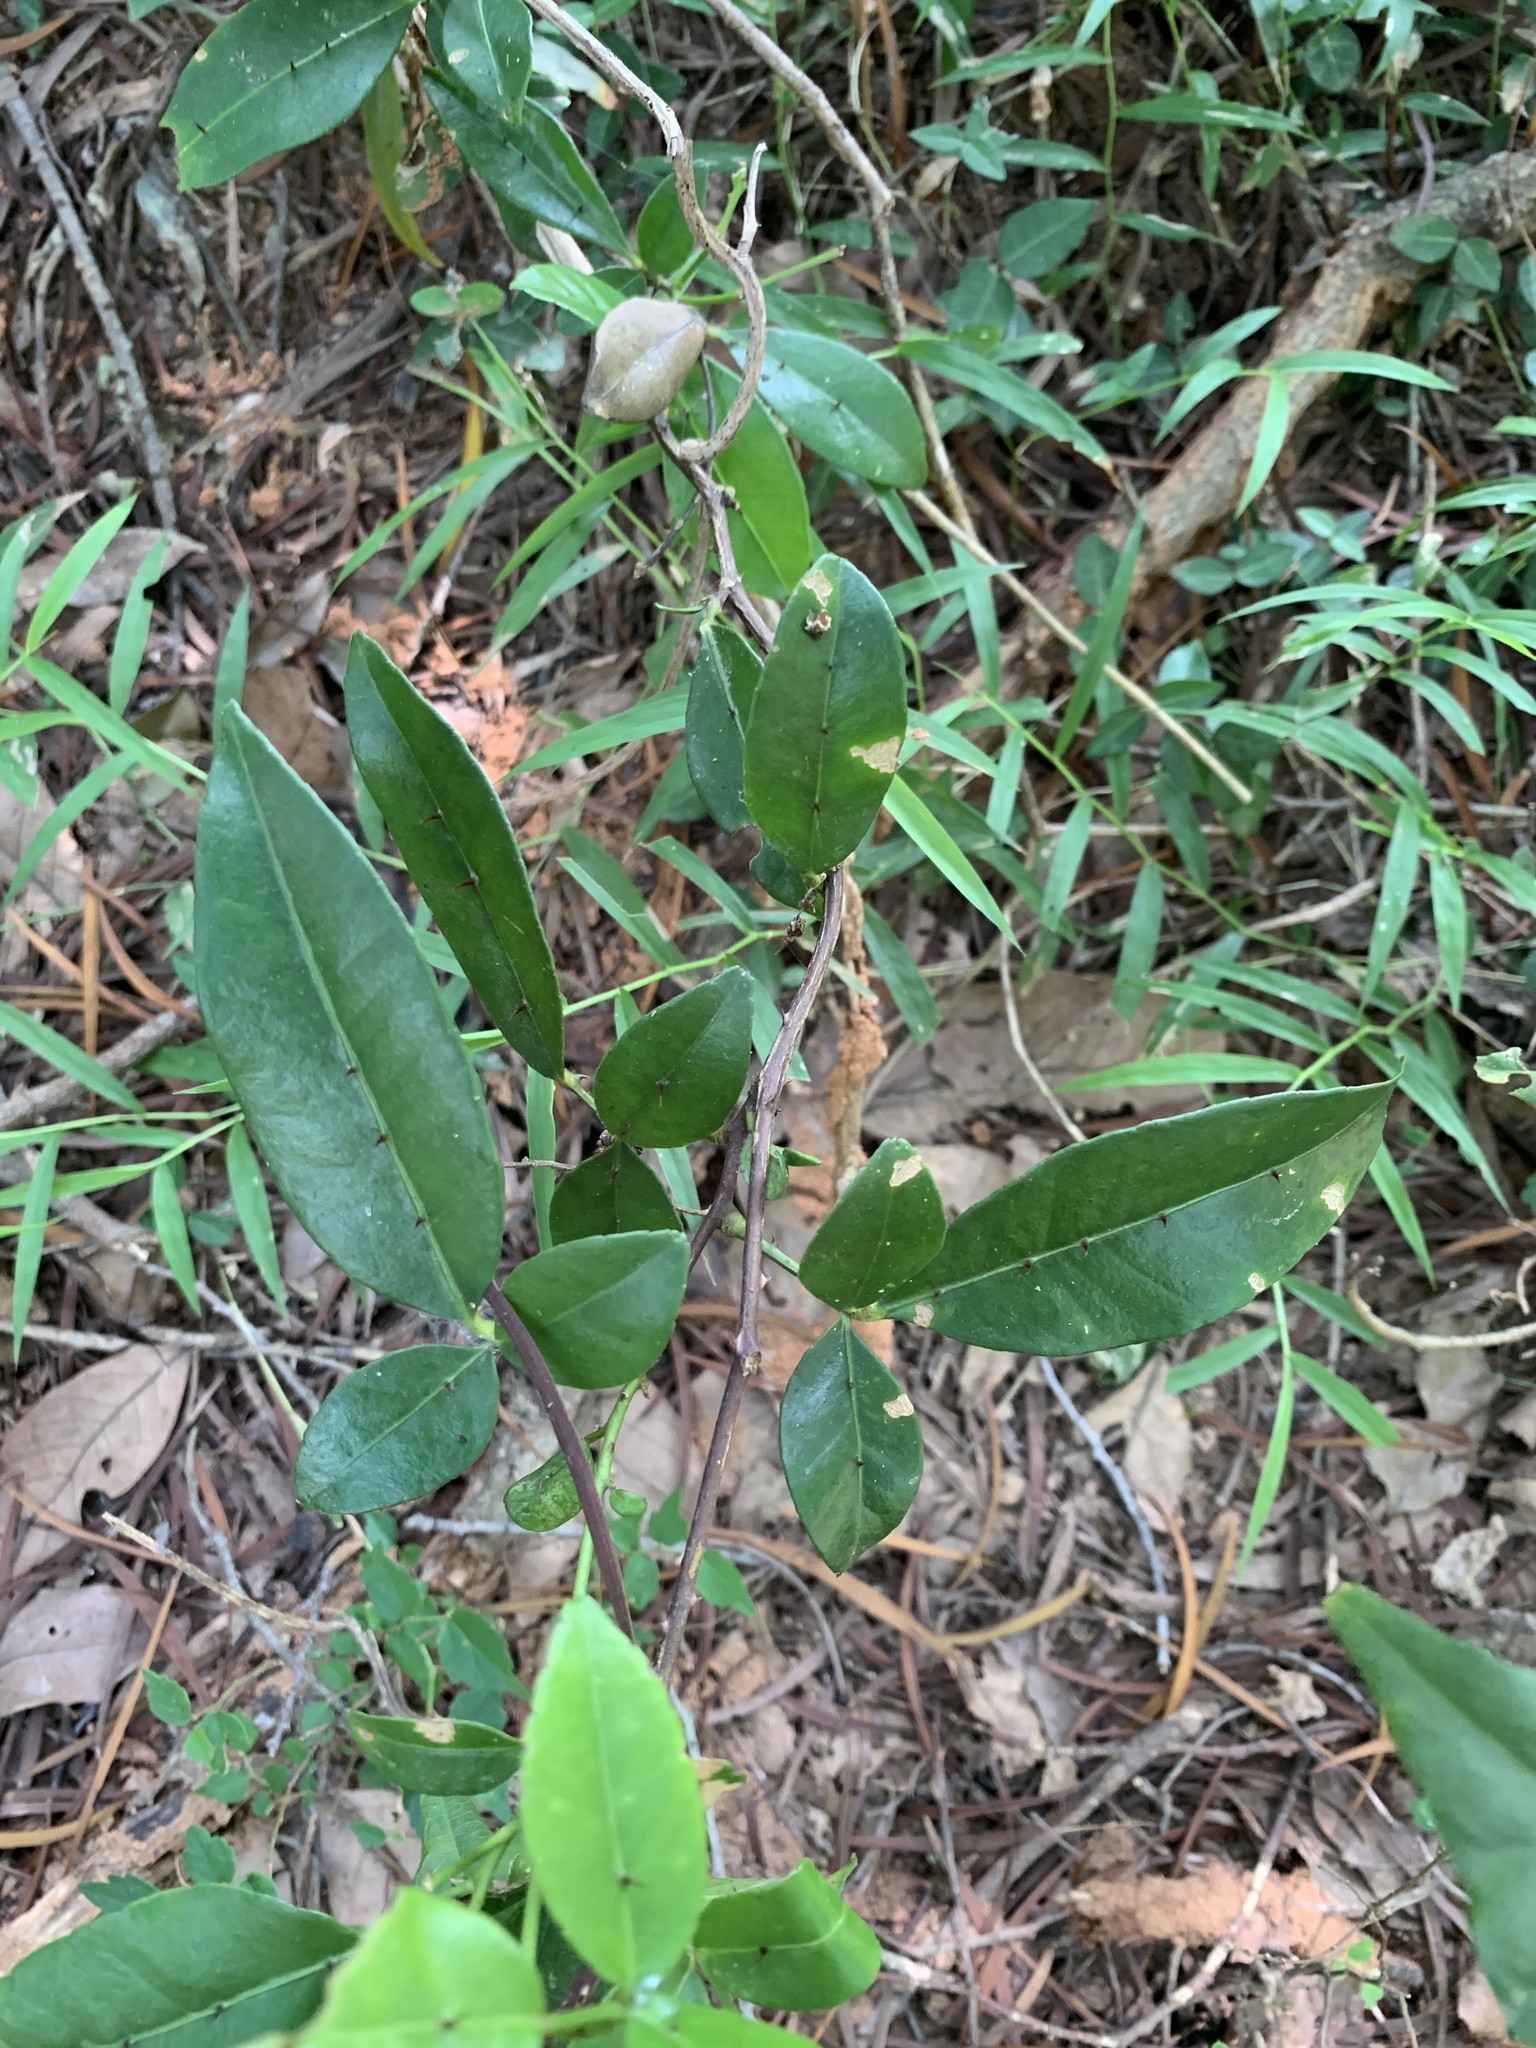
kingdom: Plantae
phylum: Tracheophyta
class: Magnoliopsida
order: Sapindales
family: Rutaceae
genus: Zanthoxylum
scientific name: Zanthoxylum nitidum
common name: Shiny-leaf prickly-ash
